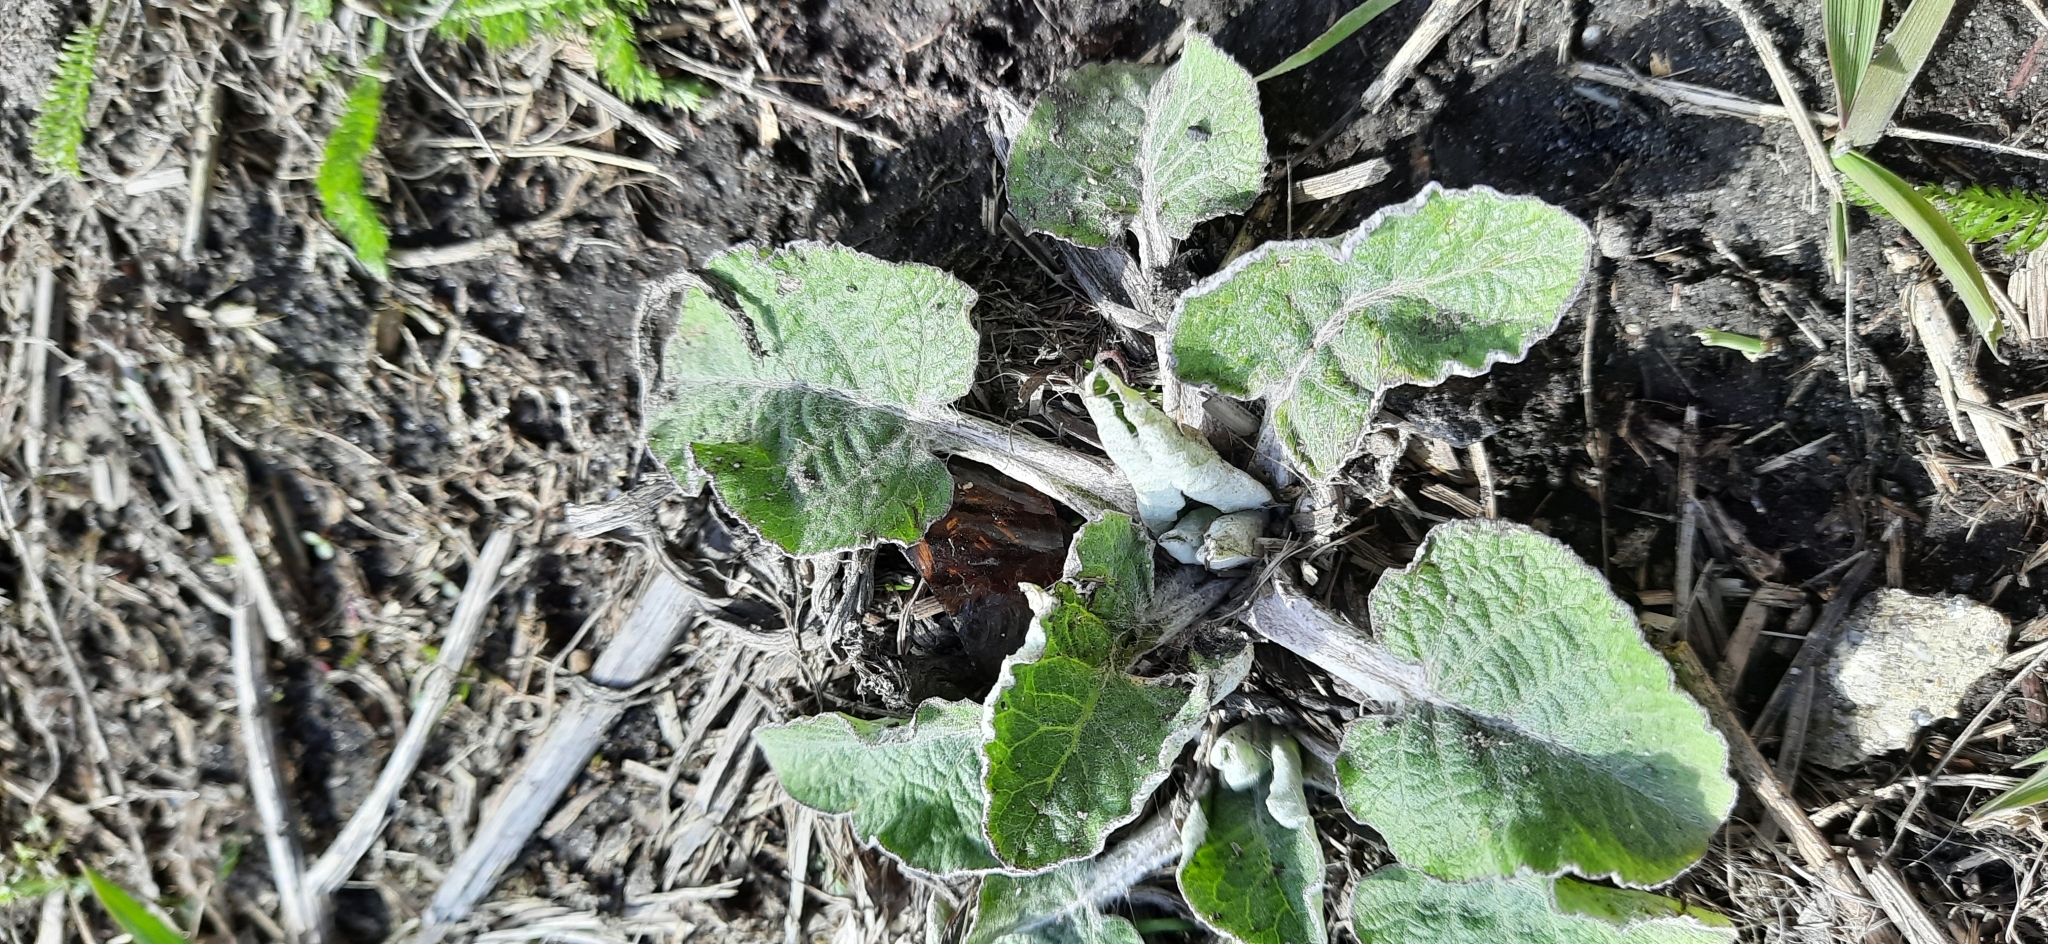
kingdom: Plantae
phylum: Tracheophyta
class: Magnoliopsida
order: Asterales
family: Asteraceae
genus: Arctium
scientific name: Arctium tomentosum
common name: Woolly burdock
